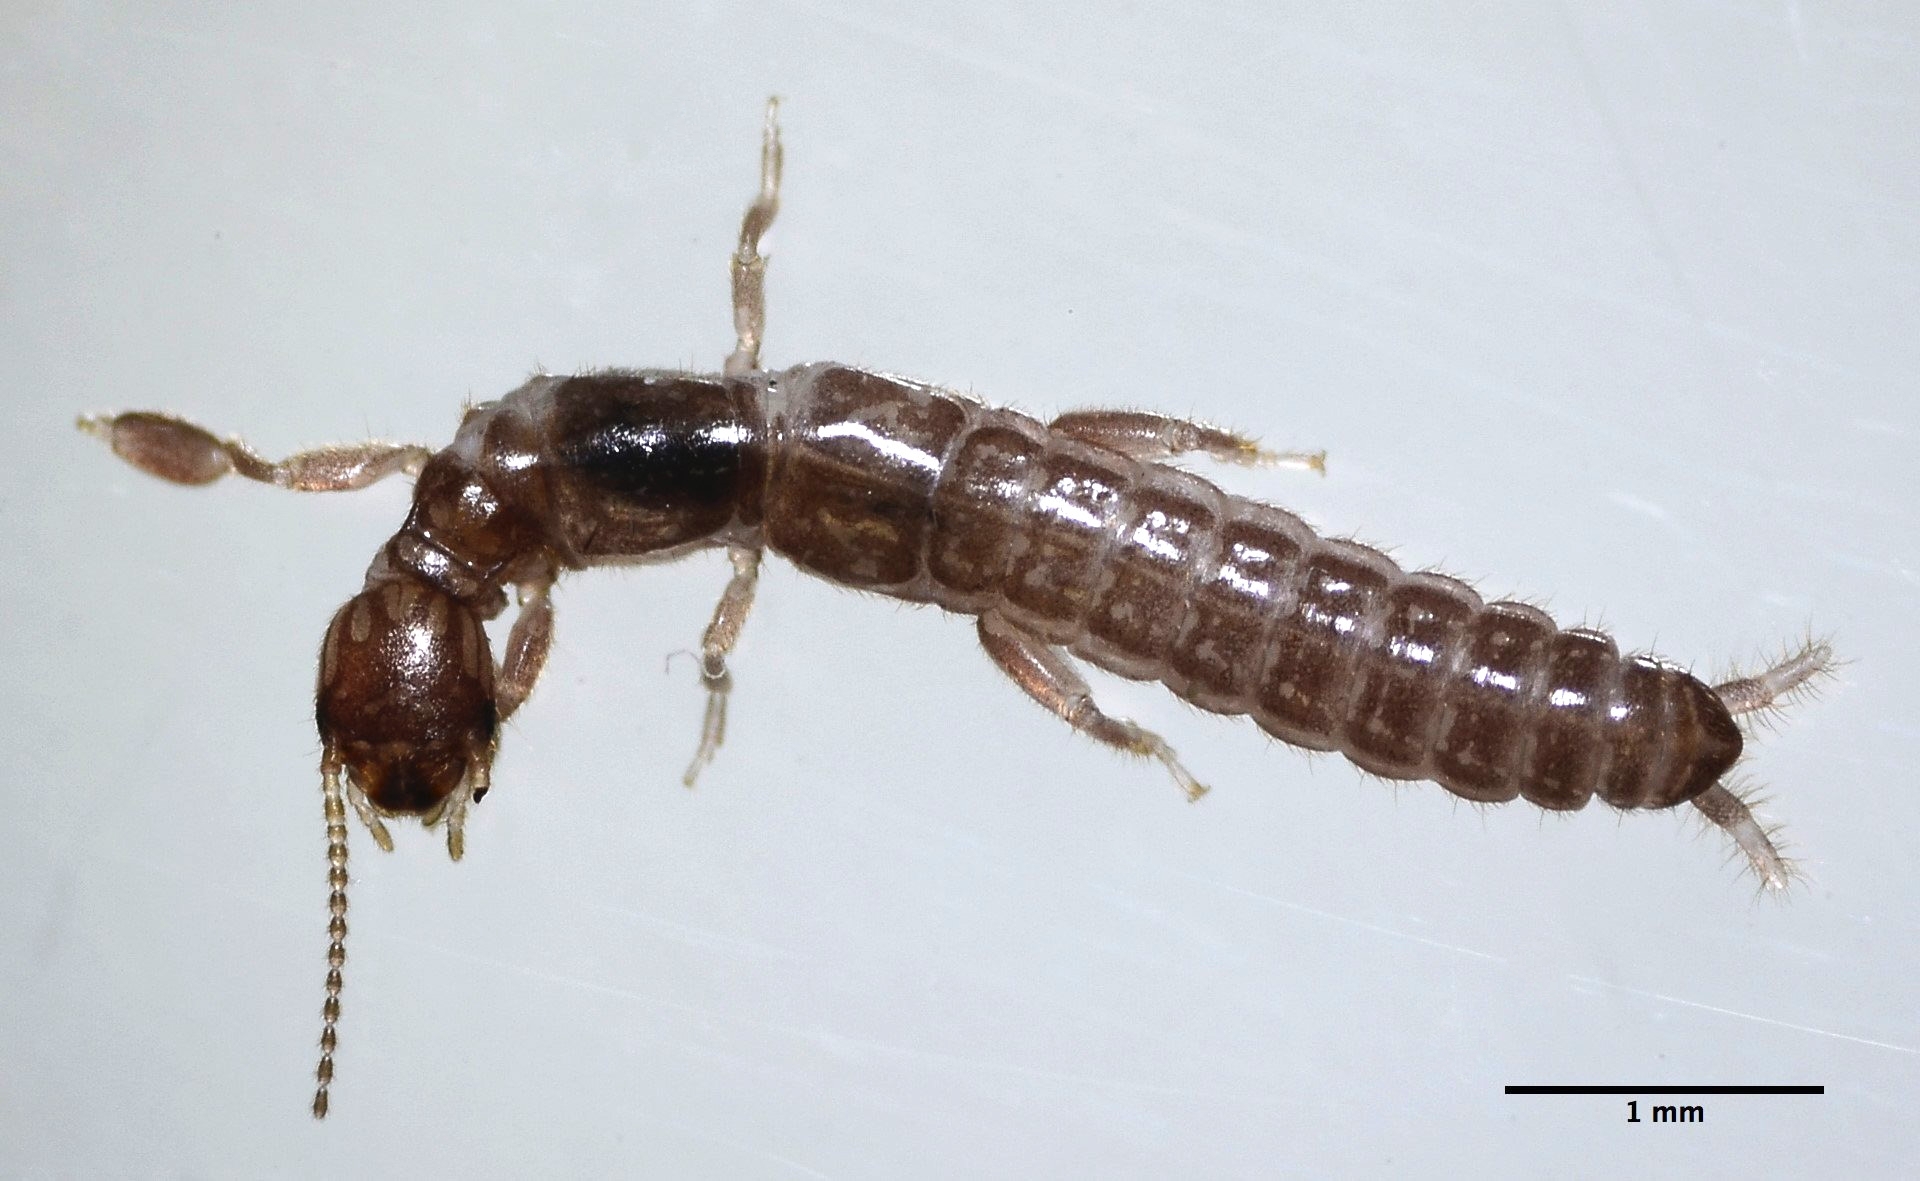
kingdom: Animalia
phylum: Arthropoda
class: Insecta
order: Embioptera
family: Oligotomidae
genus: Haploembia
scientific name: Haploembia solieri
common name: Webspinner
